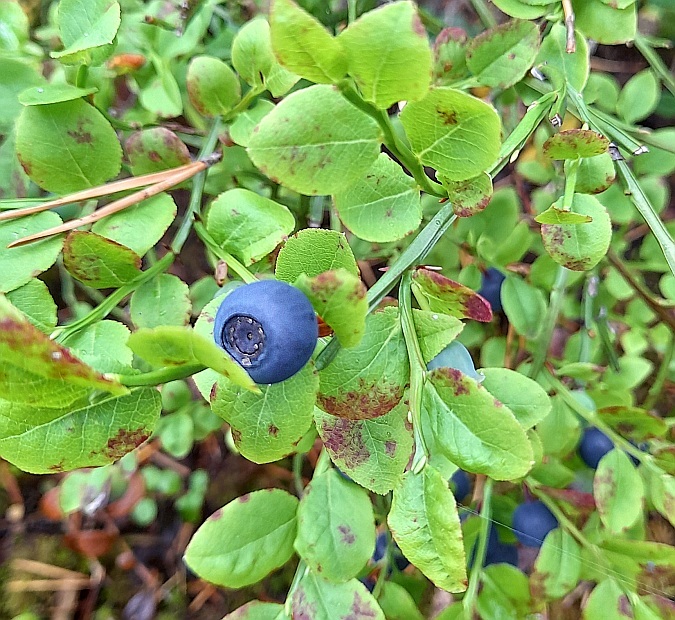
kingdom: Plantae
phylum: Tracheophyta
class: Magnoliopsida
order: Ericales
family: Ericaceae
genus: Vaccinium
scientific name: Vaccinium myrtillus
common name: Bilberry
